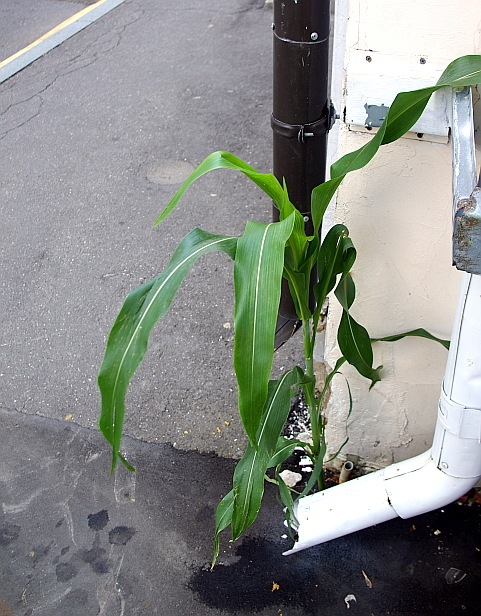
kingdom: Plantae
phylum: Tracheophyta
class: Liliopsida
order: Poales
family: Poaceae
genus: Zea
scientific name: Zea mays
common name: Maize
